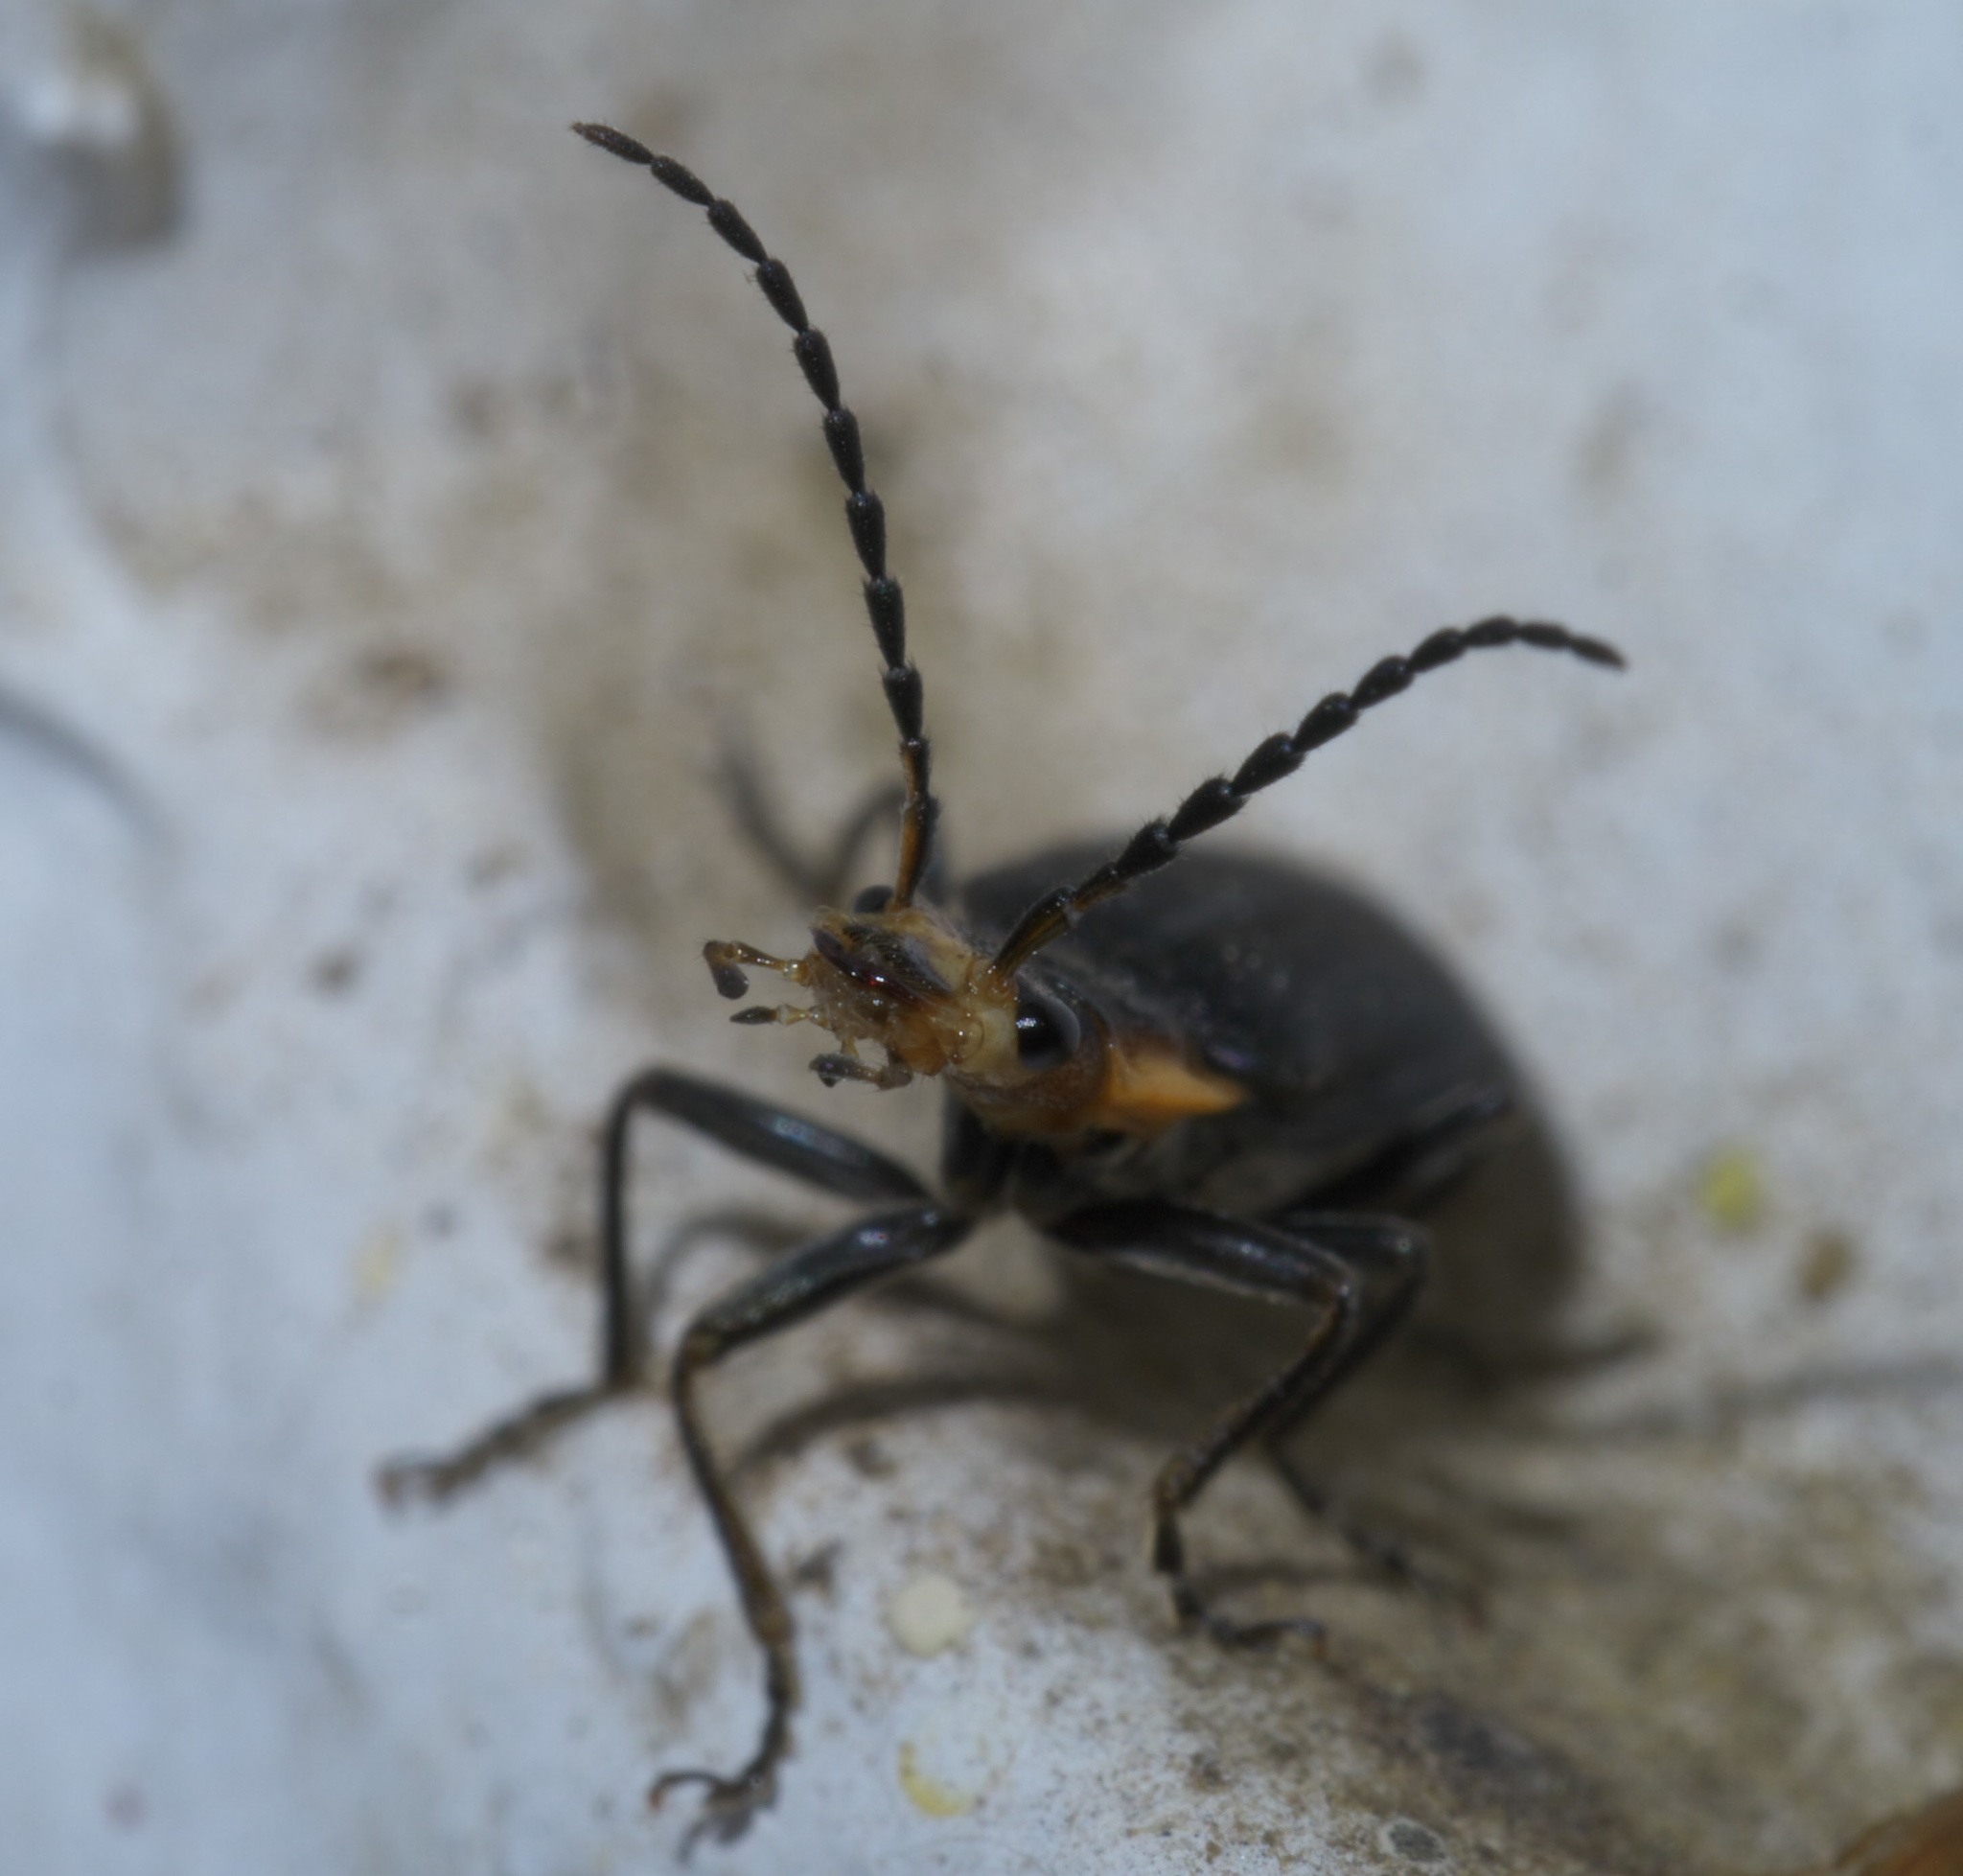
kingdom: Animalia
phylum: Arthropoda
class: Insecta
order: Coleoptera
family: Cantharidae
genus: Podabrus
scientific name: Podabrus
